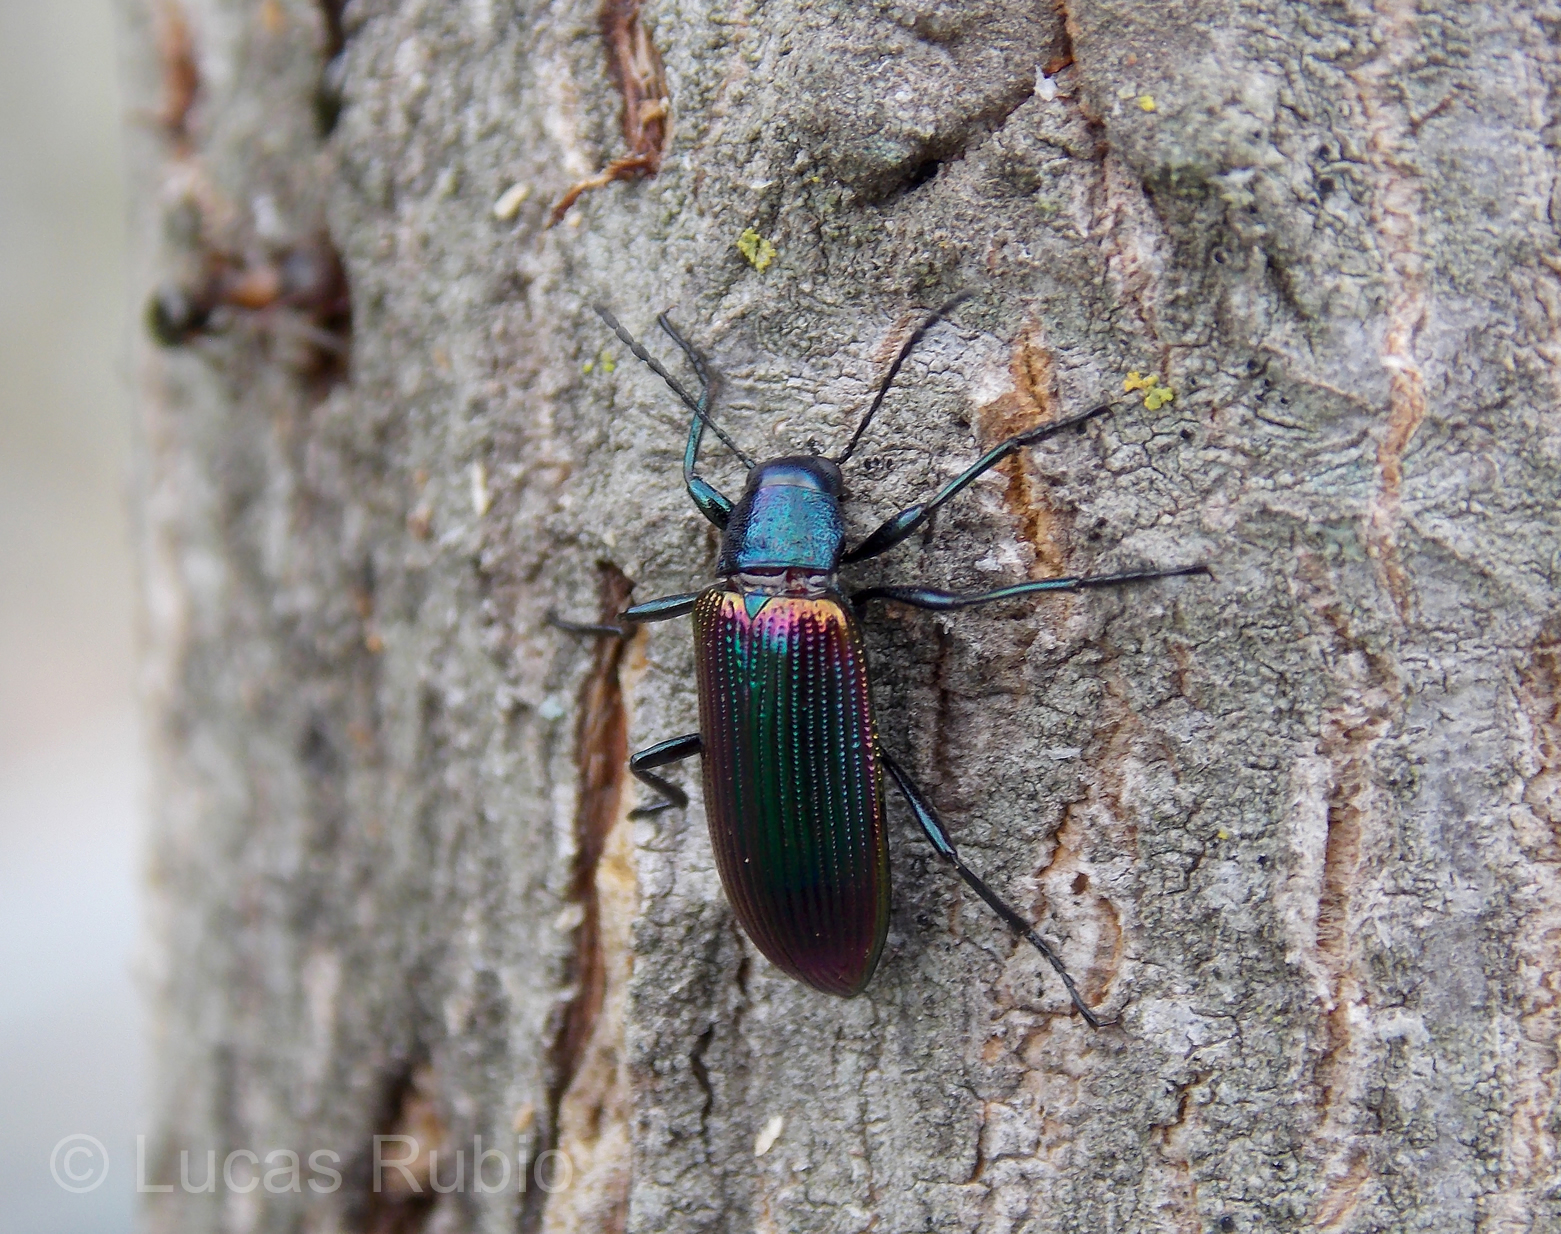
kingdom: Animalia
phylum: Arthropoda
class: Insecta
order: Coleoptera
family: Tenebrionidae
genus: Strongylium
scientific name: Strongylium
